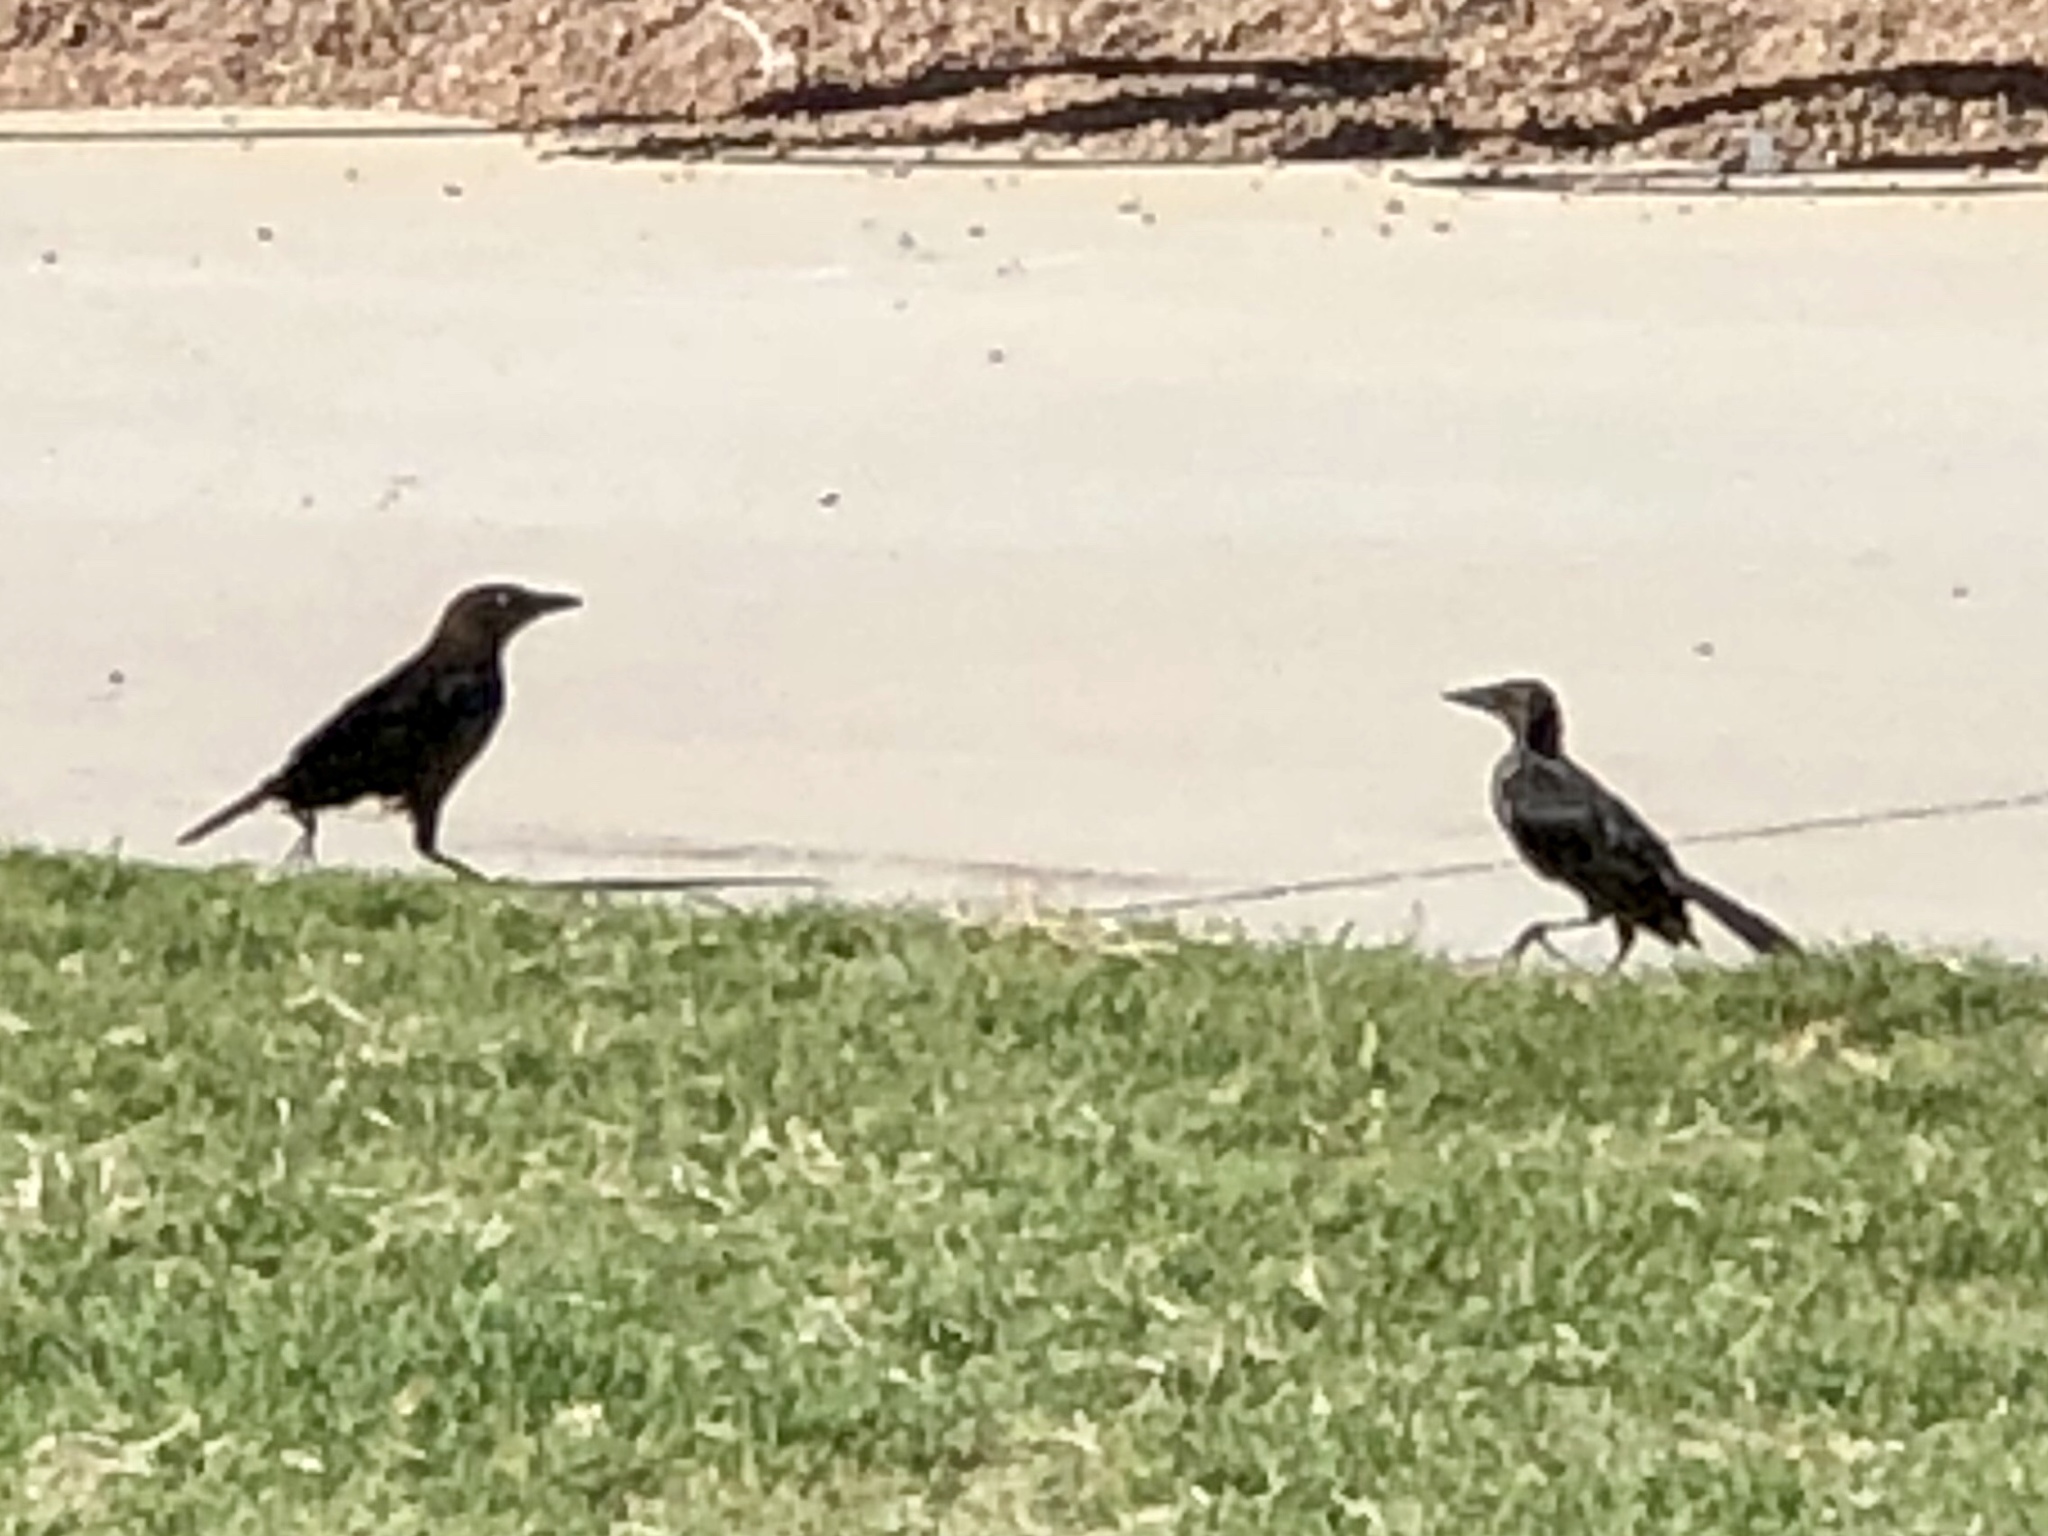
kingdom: Animalia
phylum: Chordata
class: Aves
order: Passeriformes
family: Icteridae
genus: Quiscalus
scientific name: Quiscalus mexicanus
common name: Great-tailed grackle
